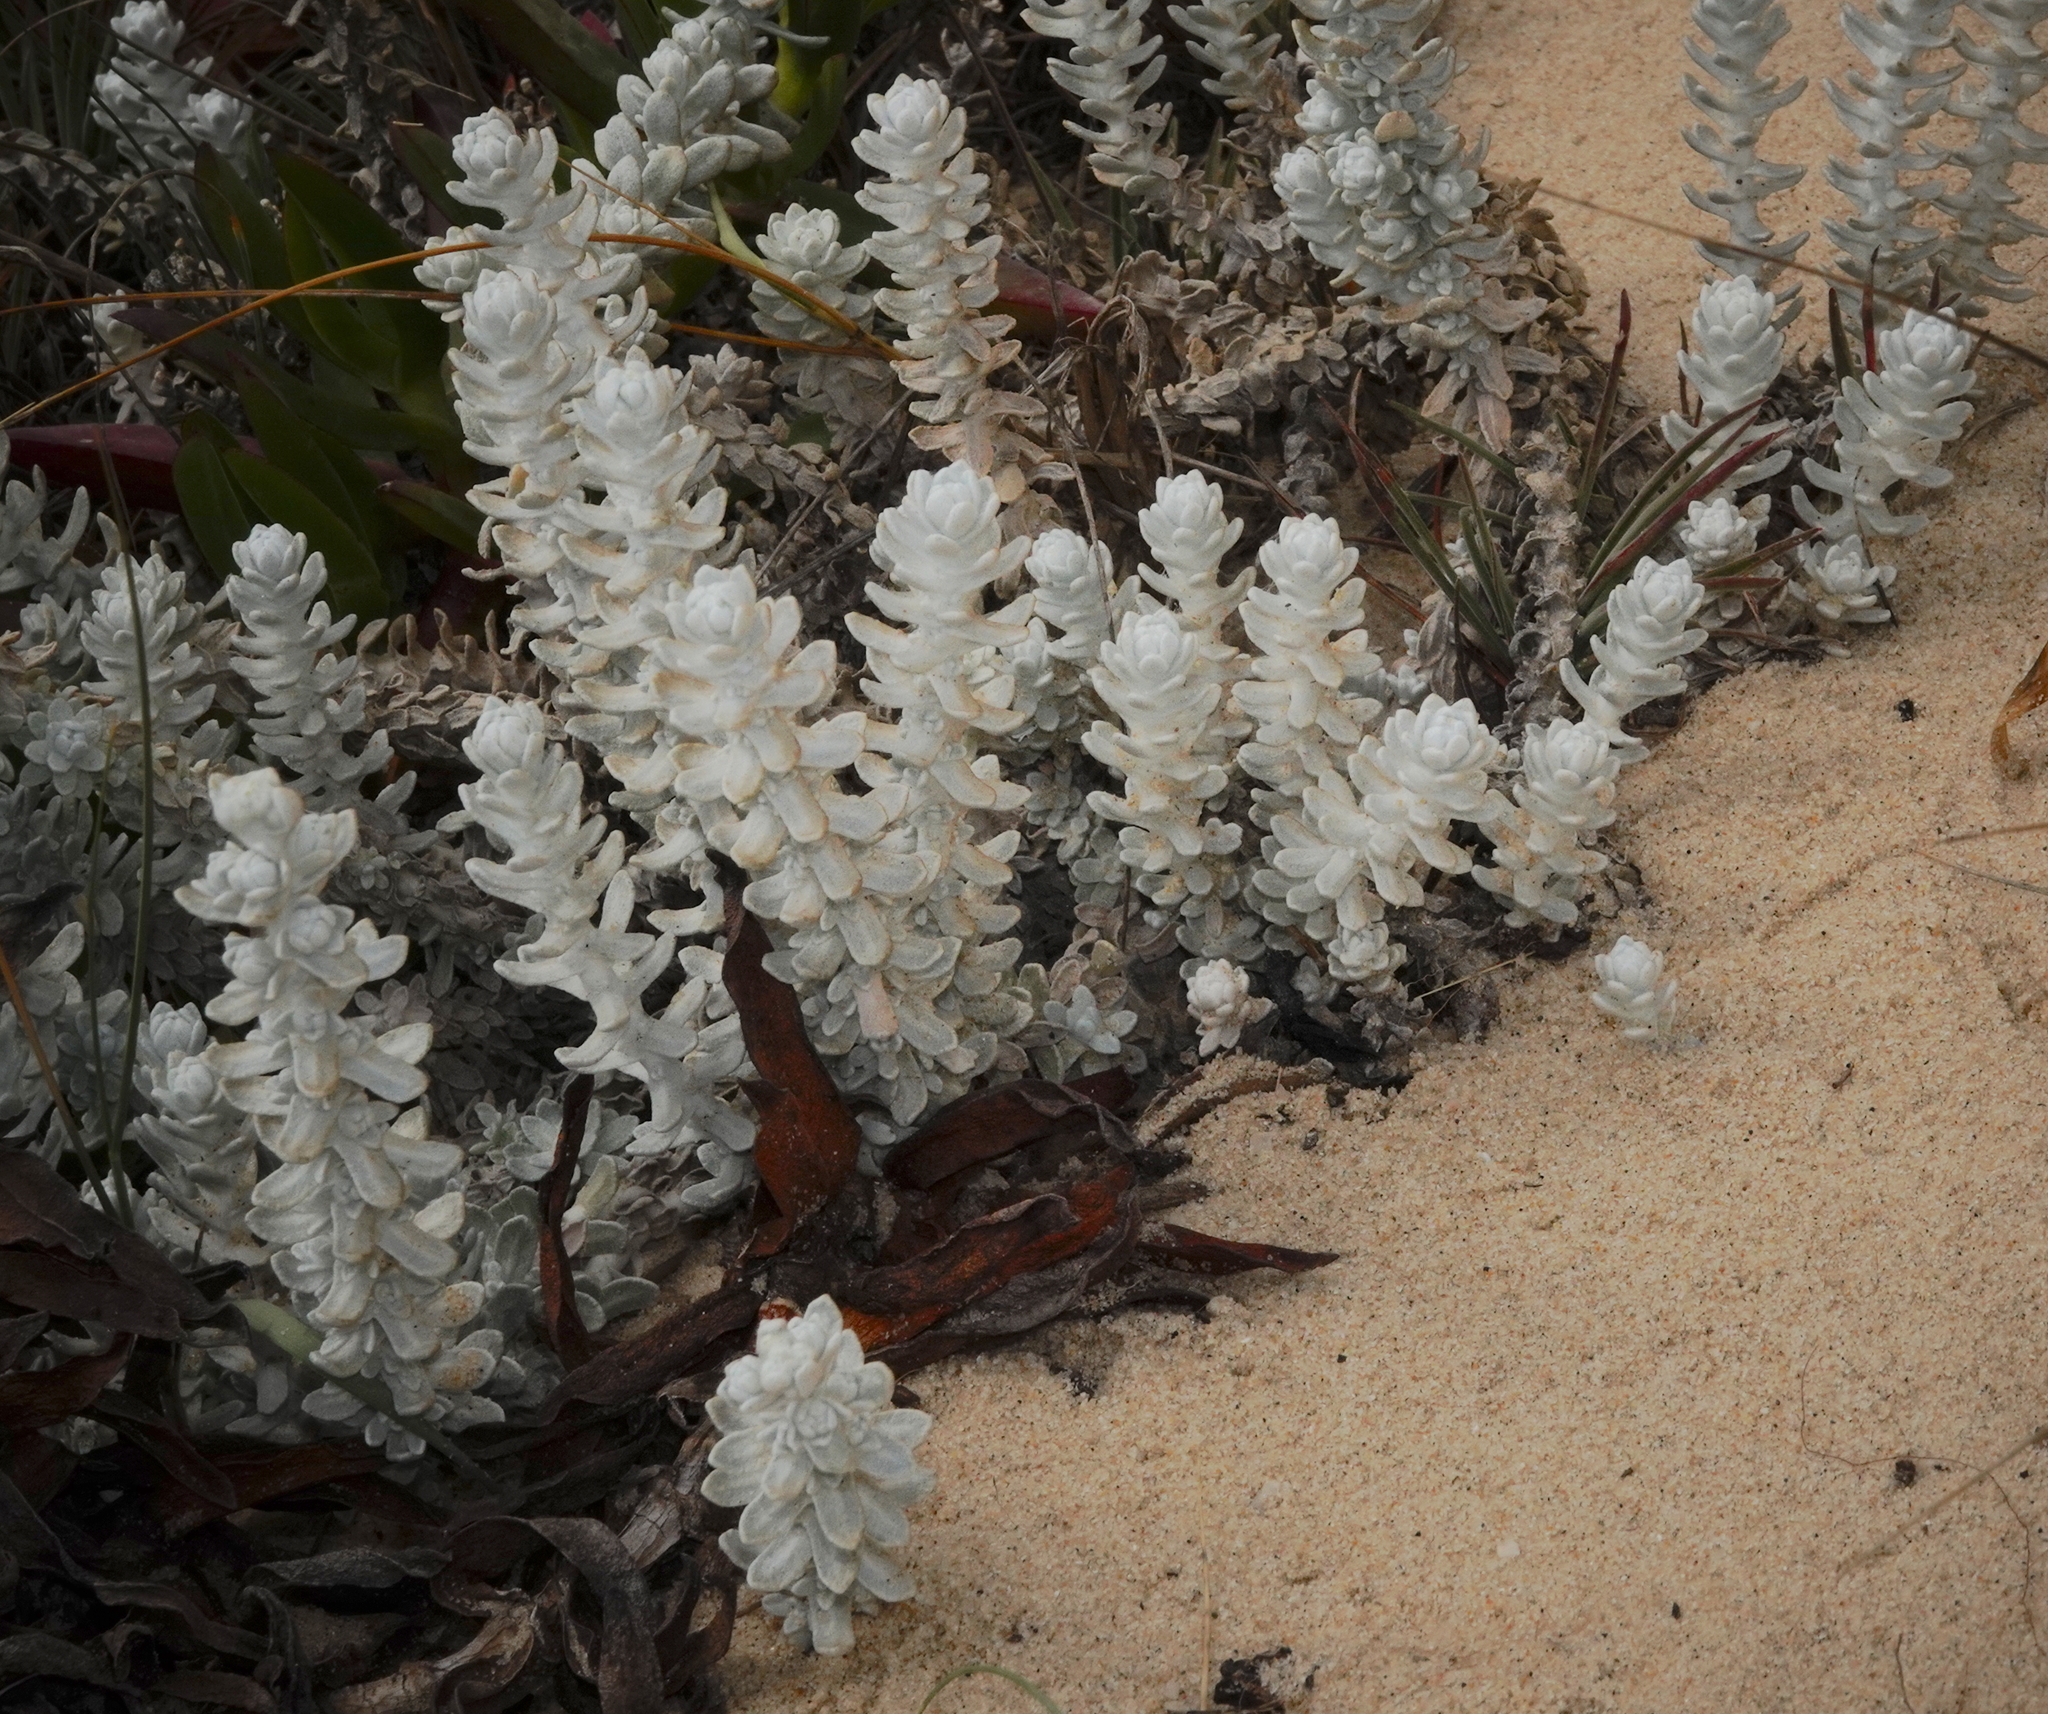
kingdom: Plantae
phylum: Tracheophyta
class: Magnoliopsida
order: Asterales
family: Asteraceae
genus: Achillea
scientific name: Achillea maritima
